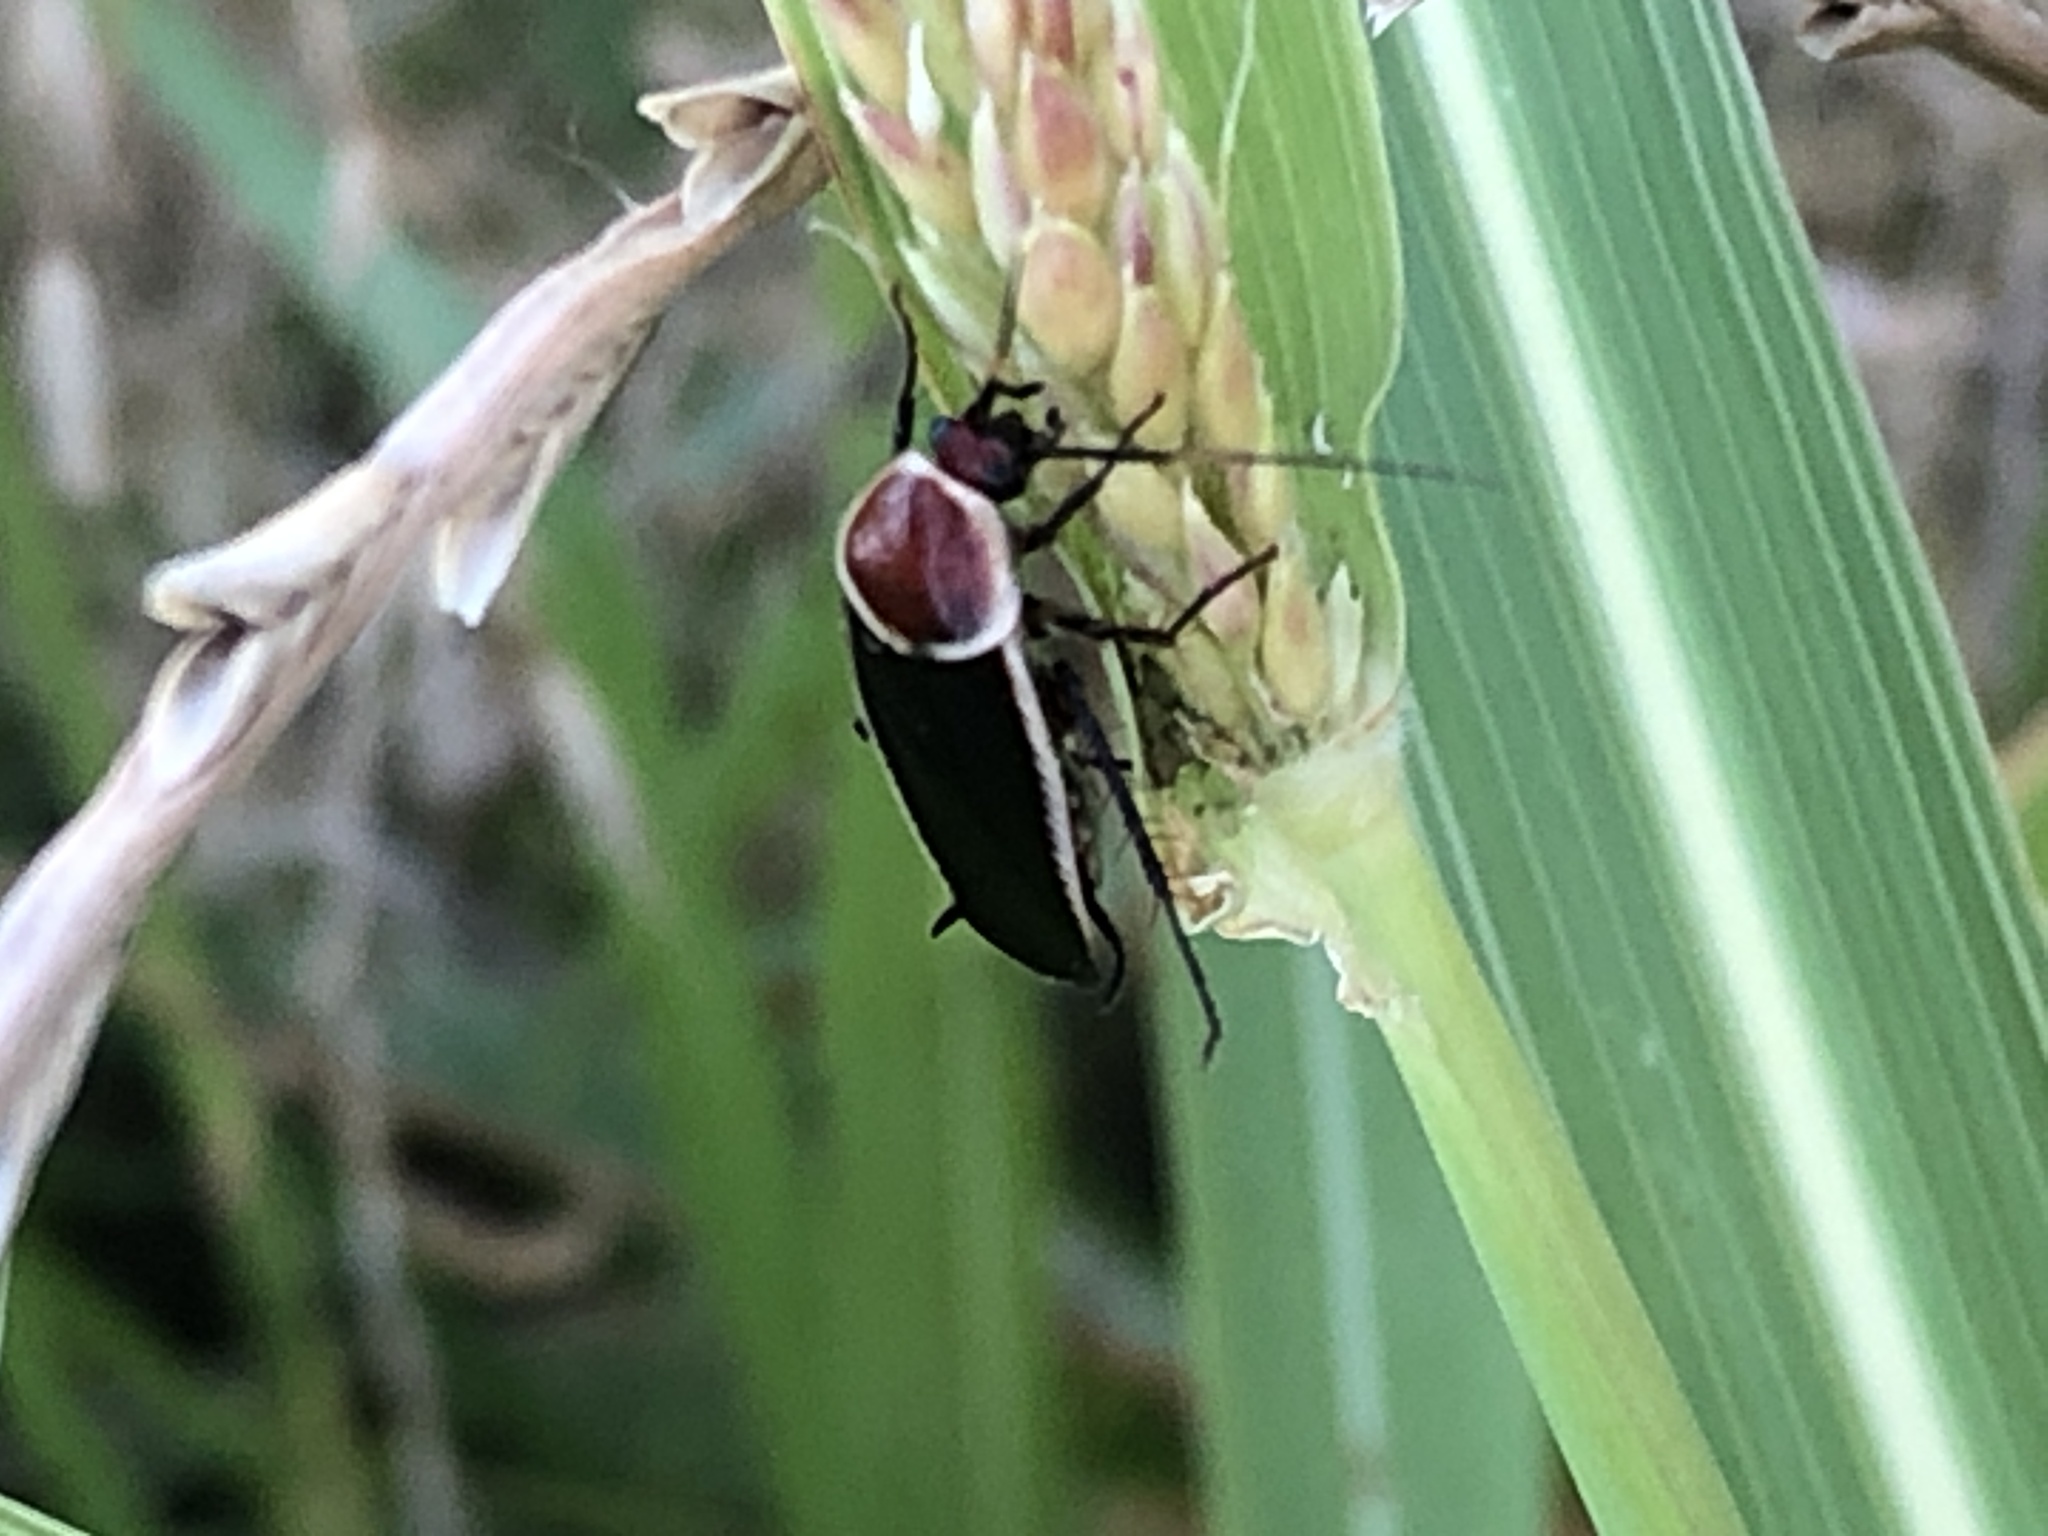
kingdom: Animalia
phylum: Arthropoda
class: Insecta
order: Blattodea
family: Ectobiidae
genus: Pseudomops
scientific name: Pseudomops septentrionalis
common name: Pale-bordered field cockroach
